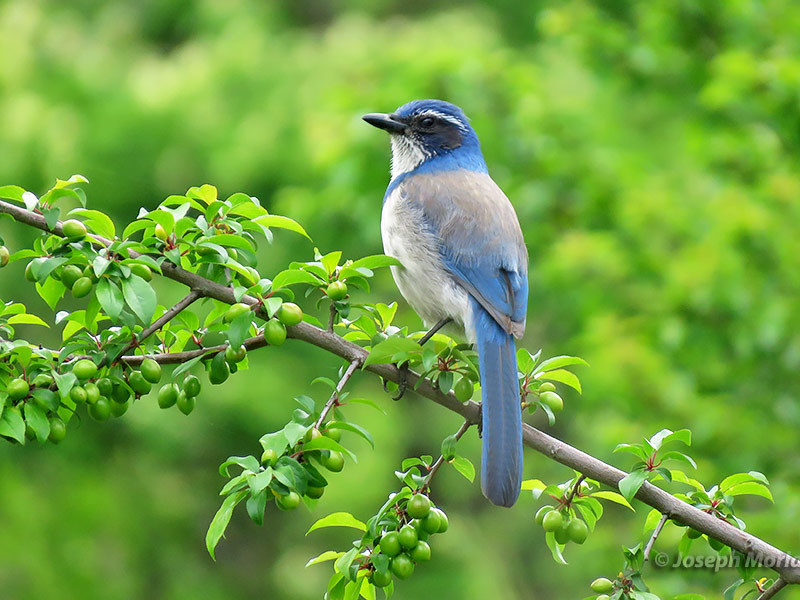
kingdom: Animalia
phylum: Chordata
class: Aves
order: Passeriformes
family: Corvidae
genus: Aphelocoma
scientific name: Aphelocoma californica
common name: California scrub-jay
